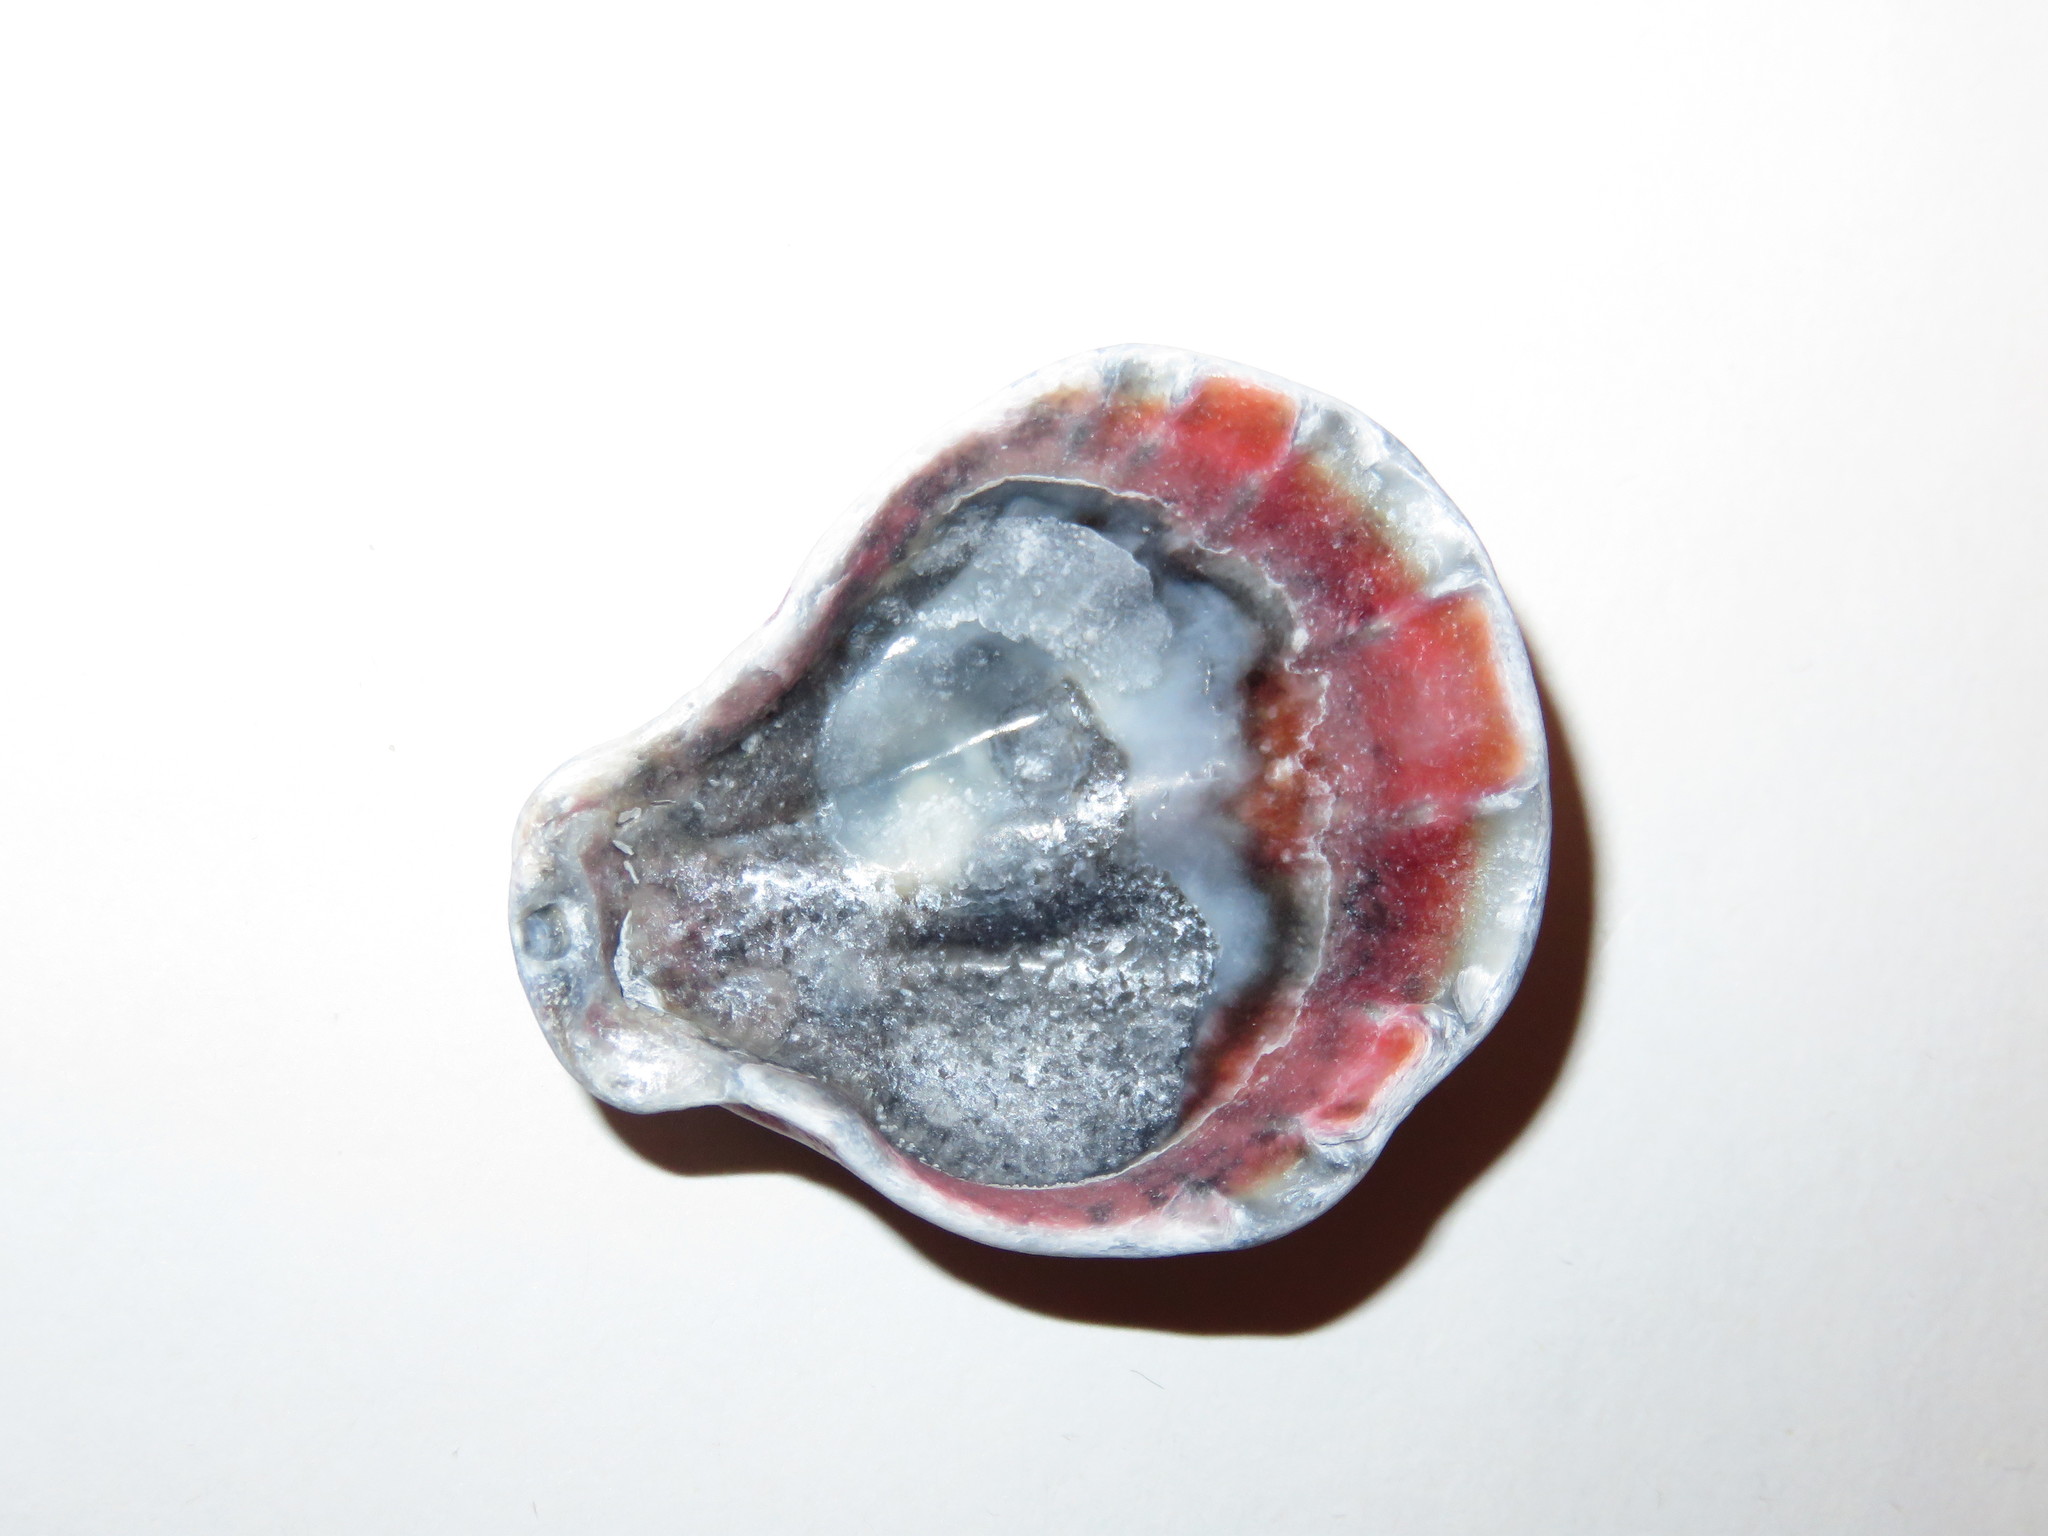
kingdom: Animalia
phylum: Mollusca
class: Bivalvia
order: Pectinida
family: Pectinidae
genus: Decatopecten
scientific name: Decatopecten plica
